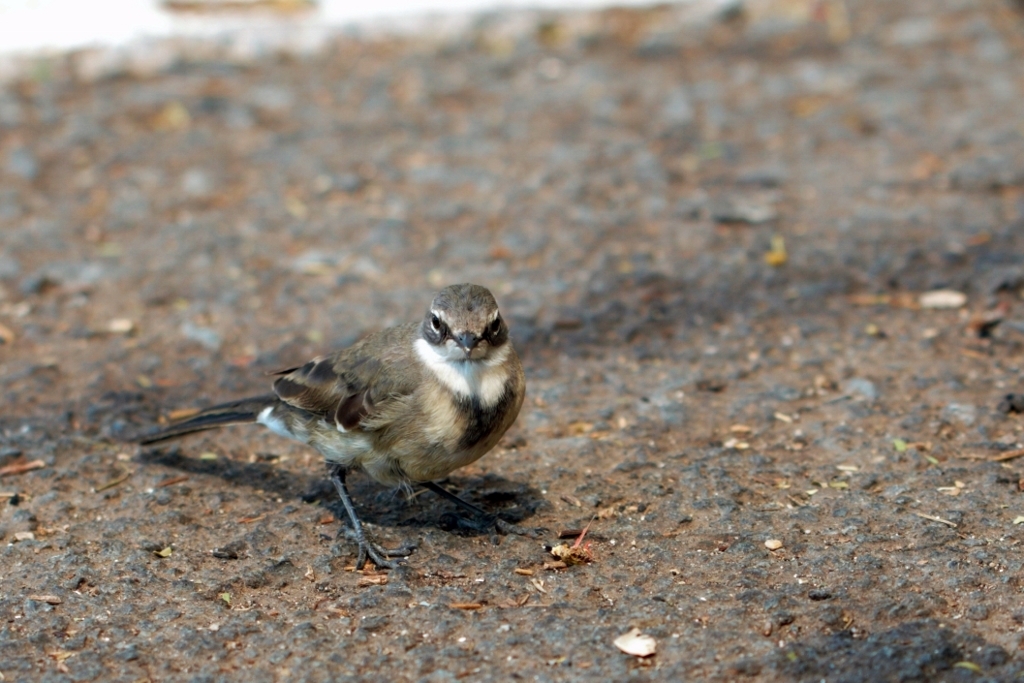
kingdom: Animalia
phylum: Chordata
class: Aves
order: Passeriformes
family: Motacillidae
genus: Motacilla
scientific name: Motacilla capensis
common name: Cape wagtail
